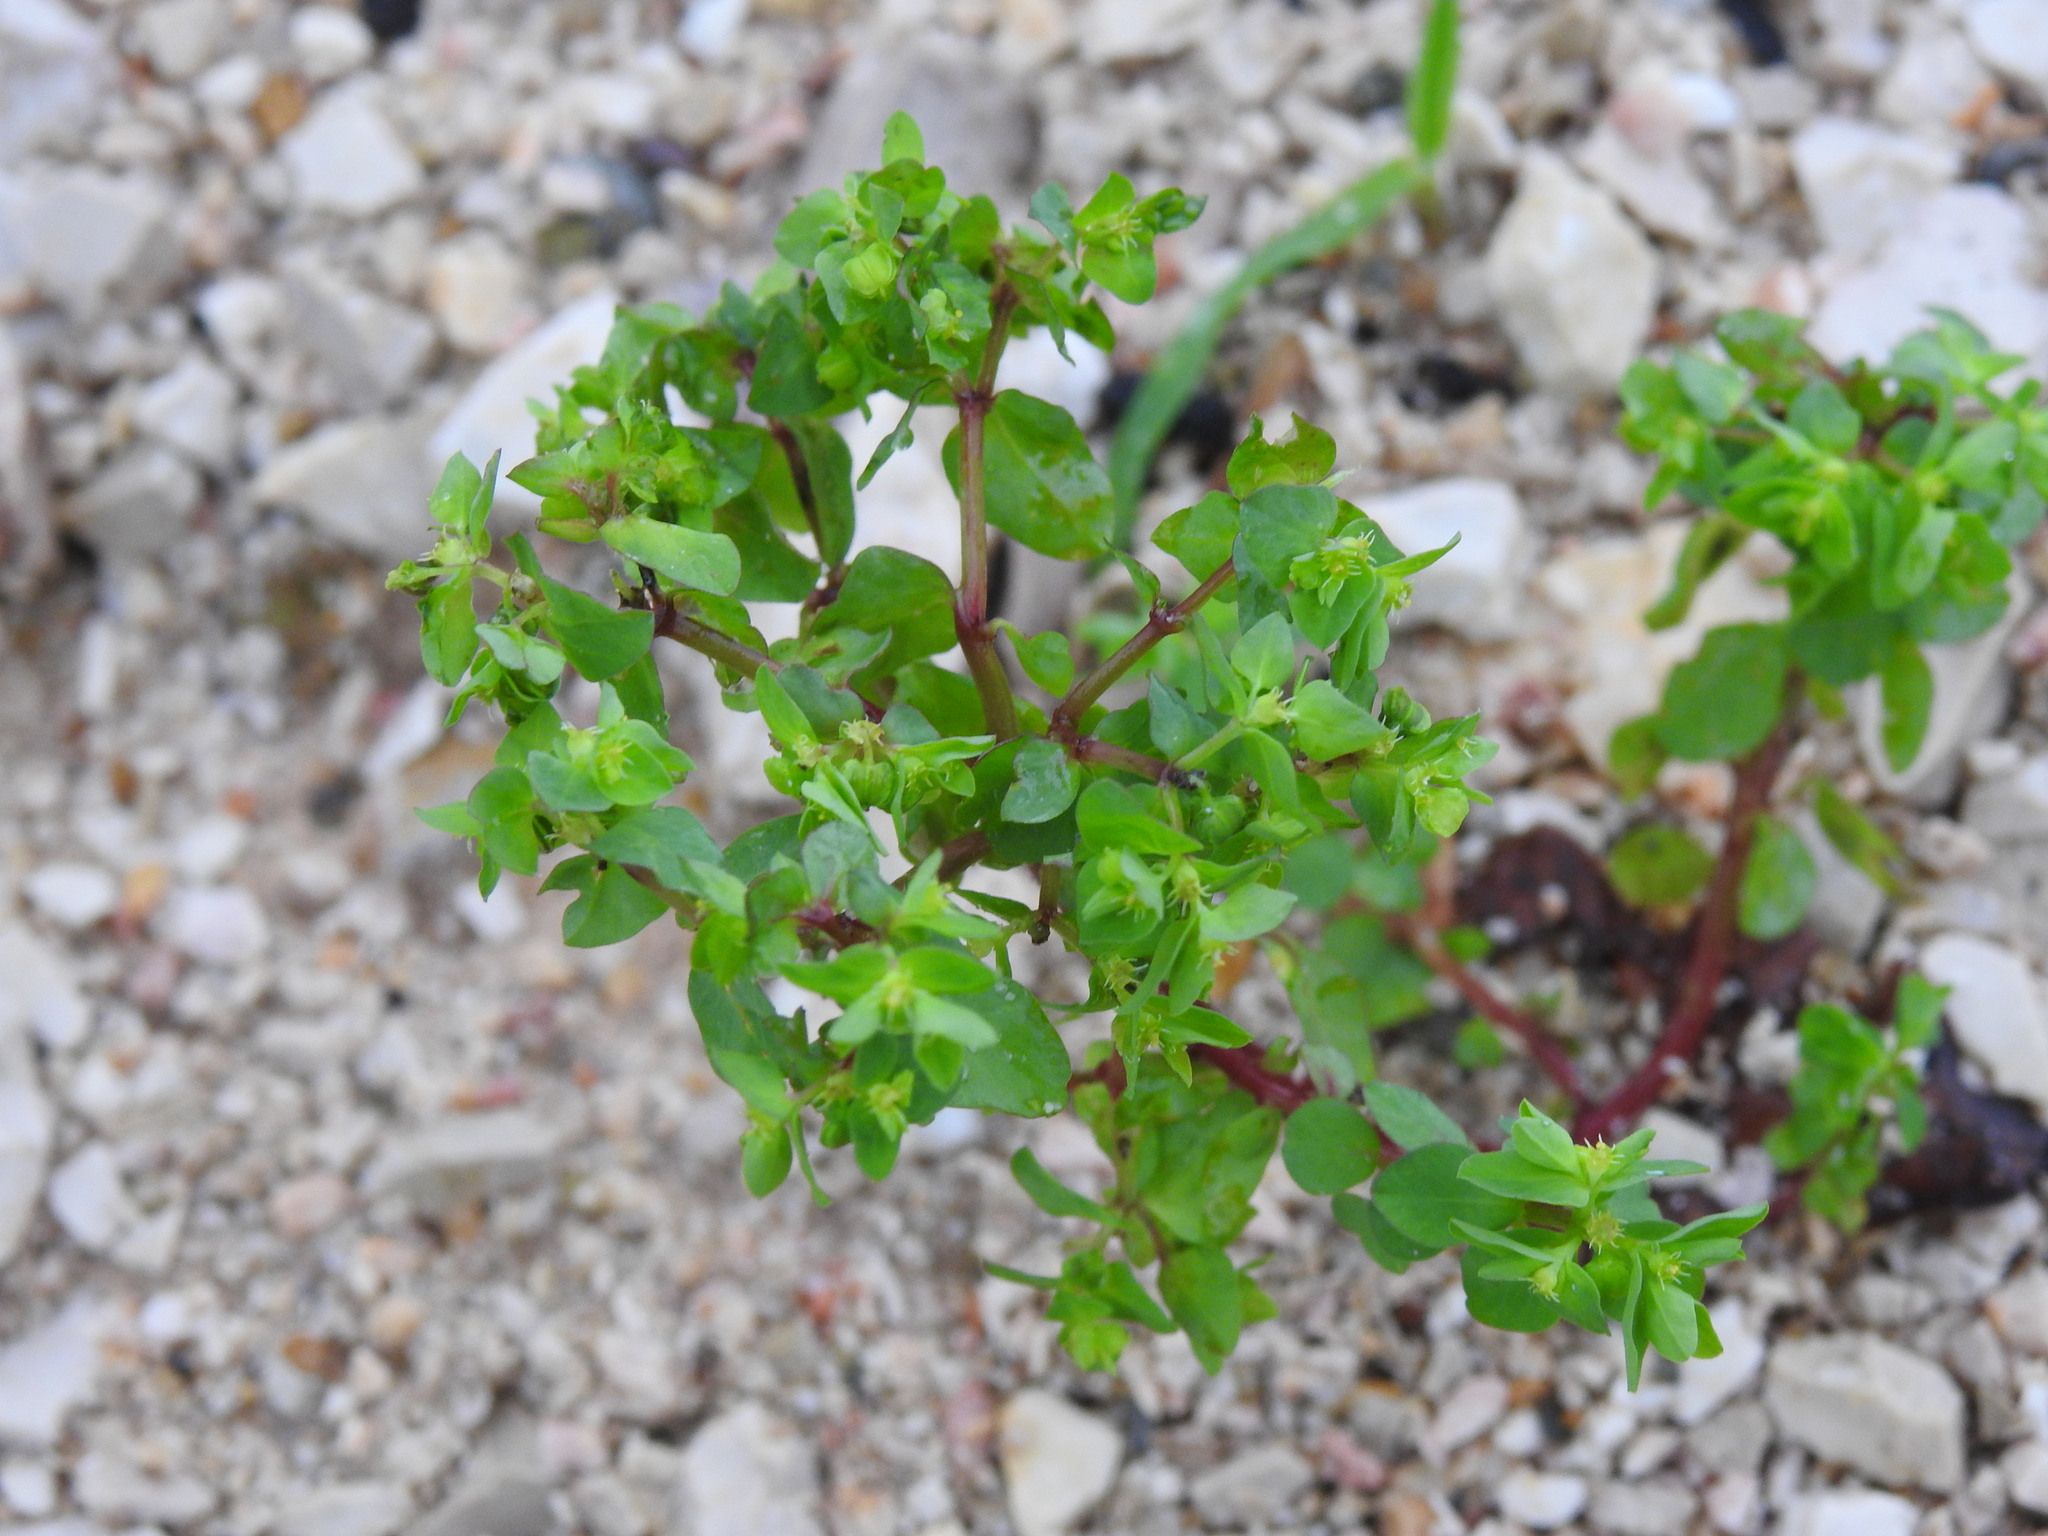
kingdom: Plantae
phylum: Tracheophyta
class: Magnoliopsida
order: Malpighiales
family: Euphorbiaceae
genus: Euphorbia
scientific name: Euphorbia peplus
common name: Petty spurge
